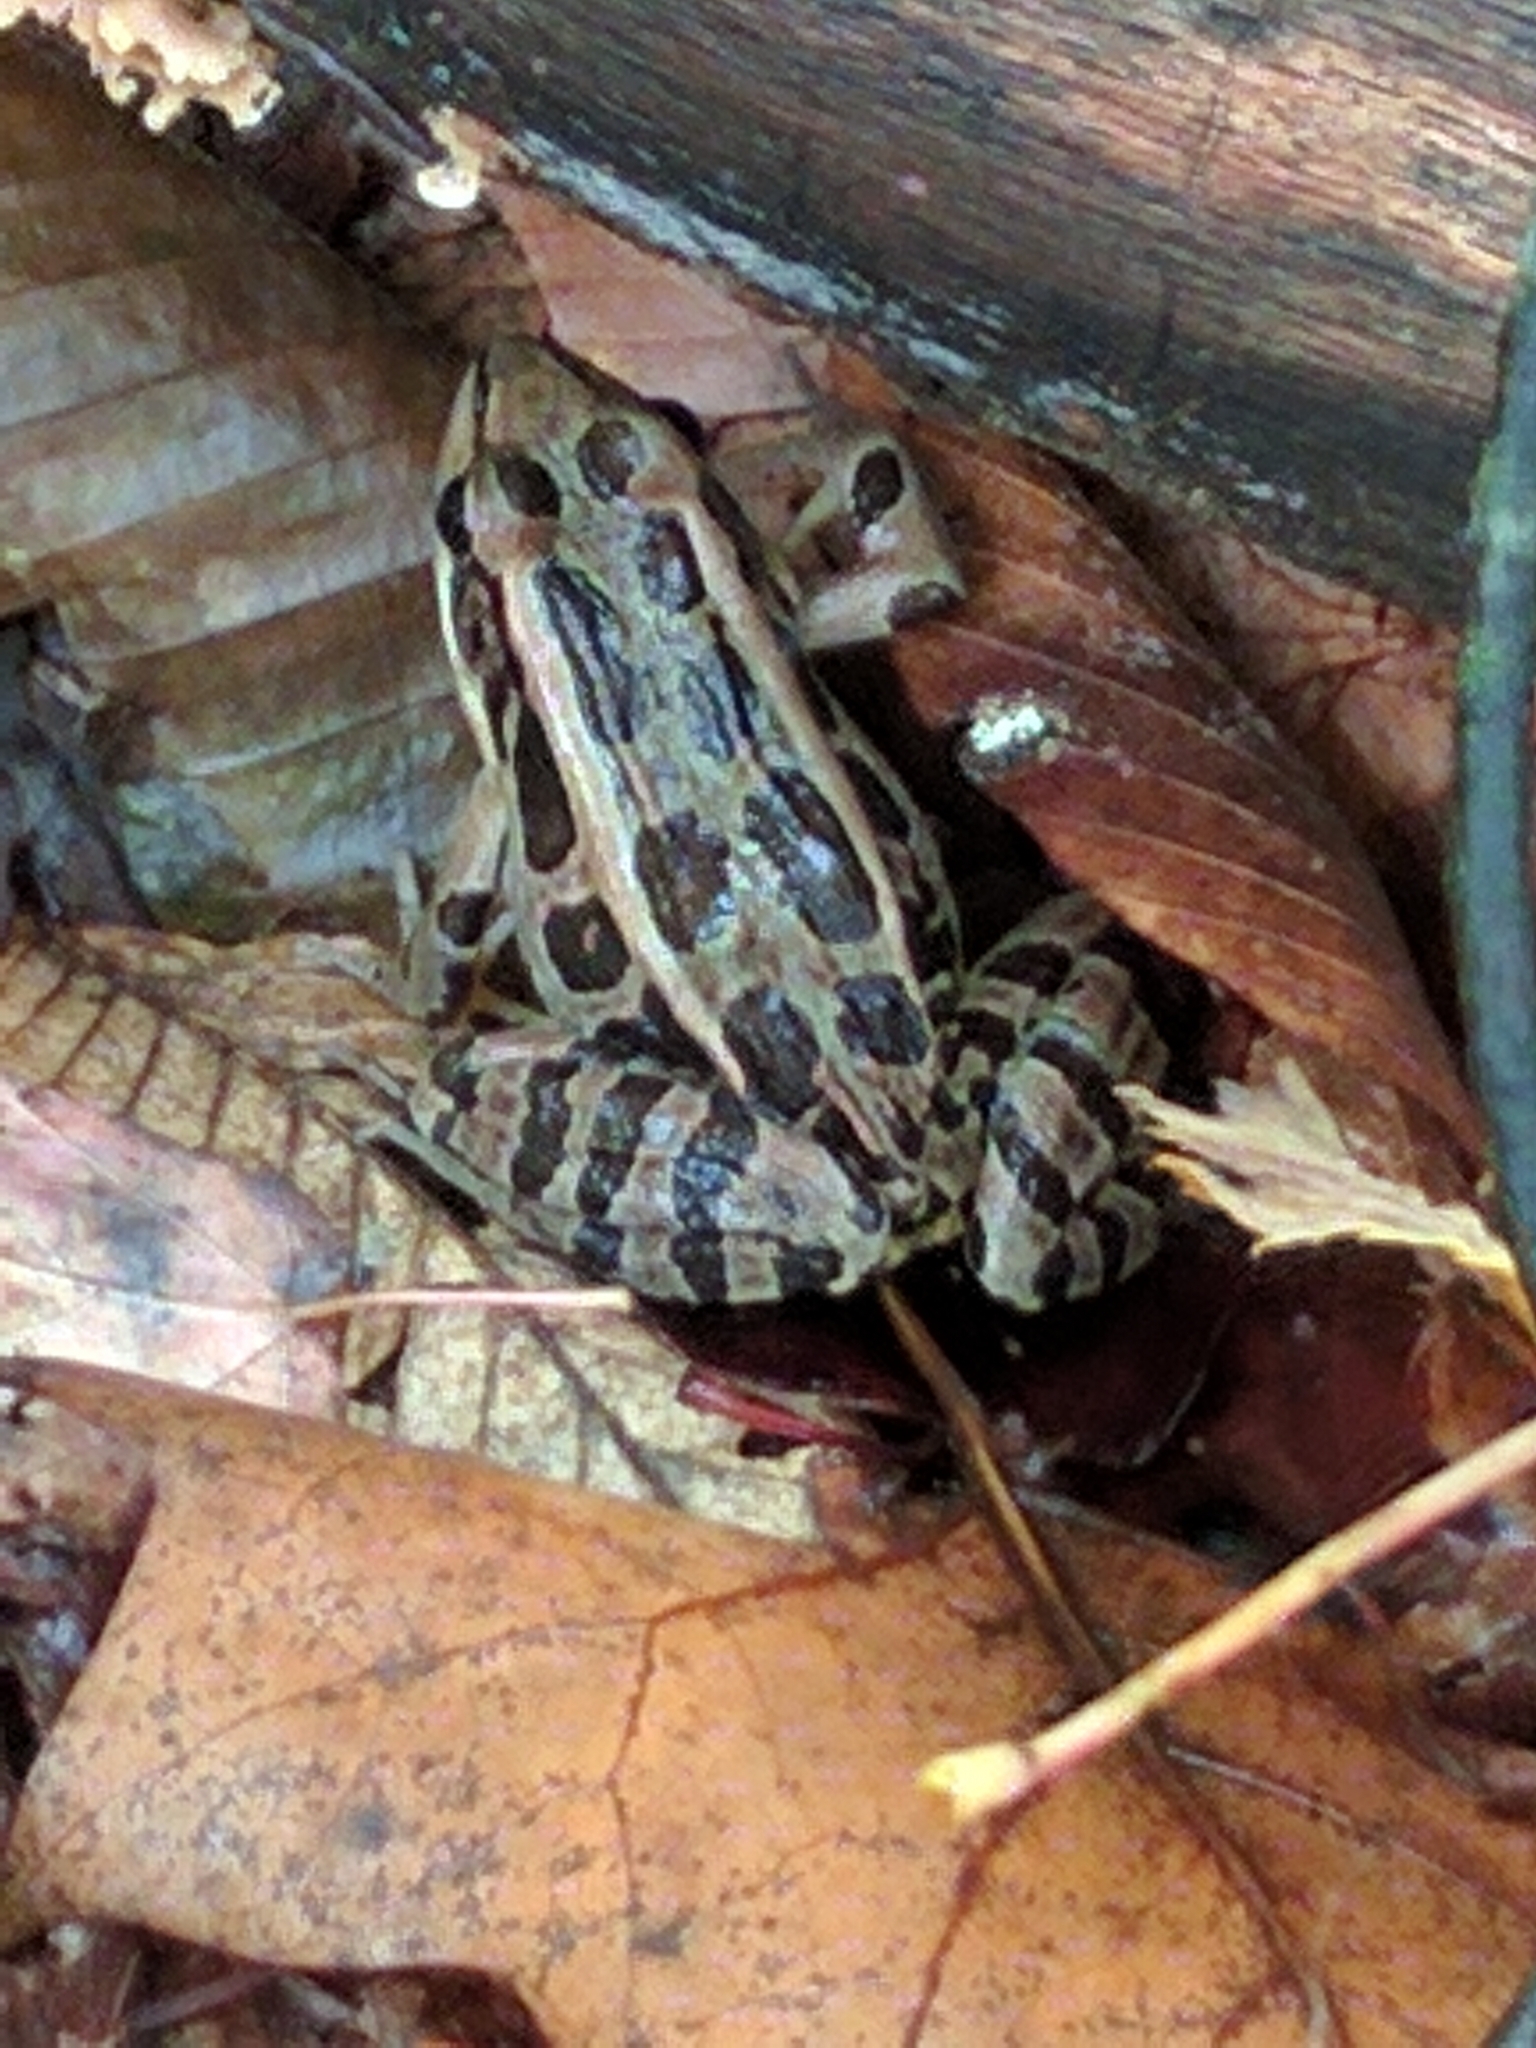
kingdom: Animalia
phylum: Chordata
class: Amphibia
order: Anura
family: Ranidae
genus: Lithobates
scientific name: Lithobates palustris
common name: Pickerel frog
